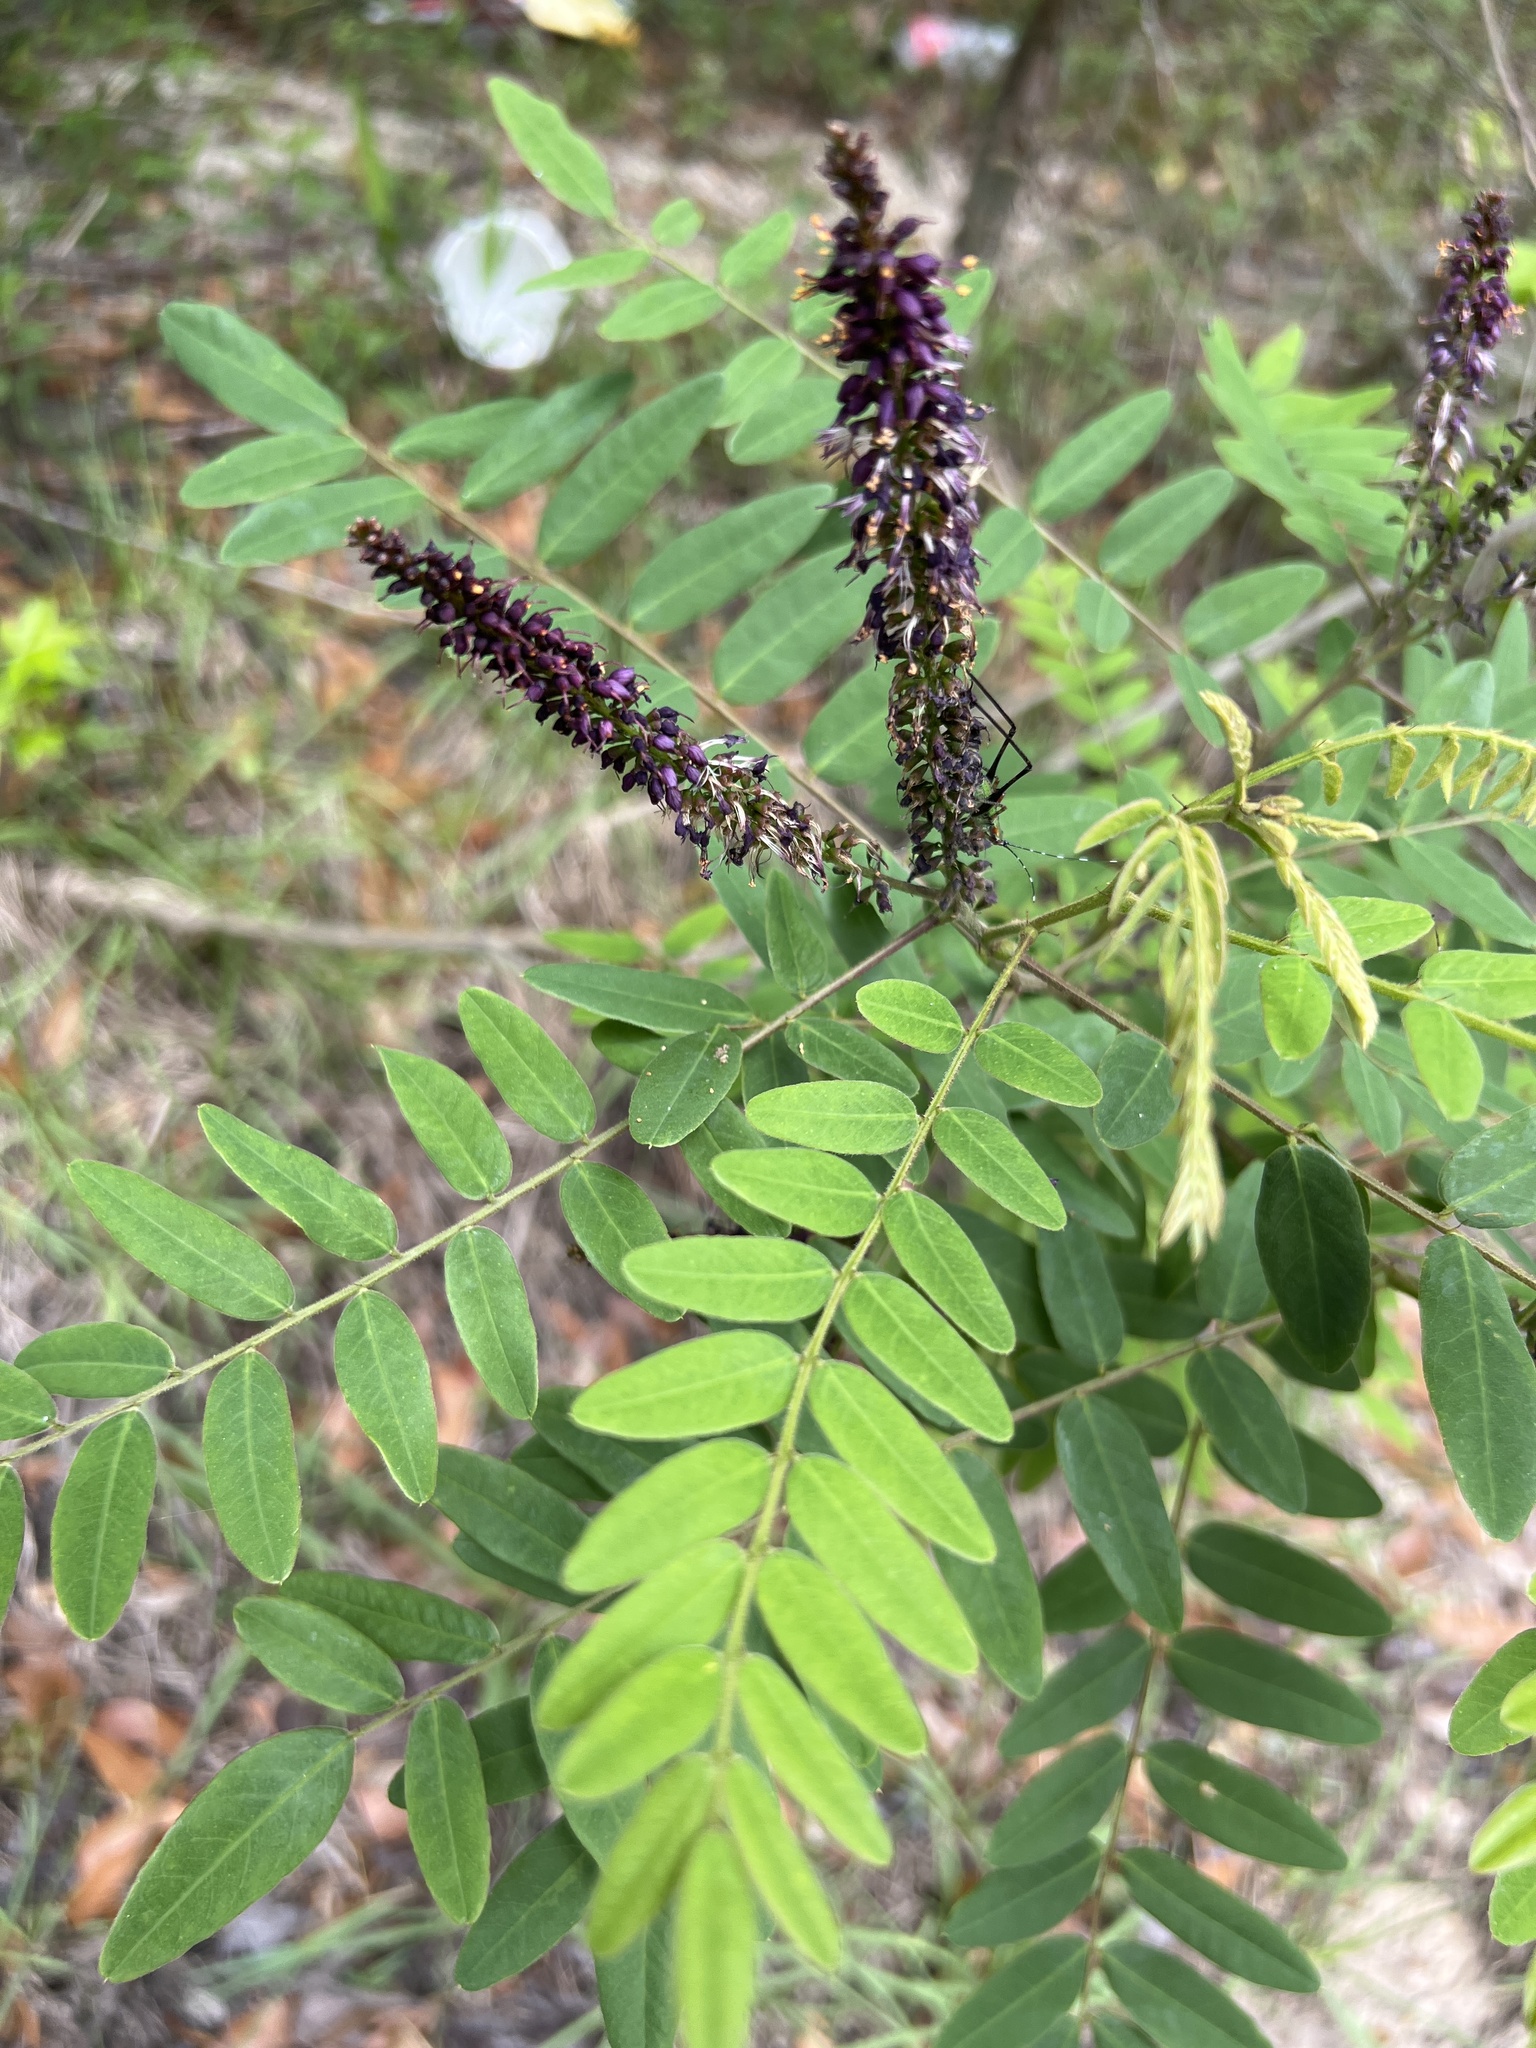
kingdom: Plantae
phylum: Tracheophyta
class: Magnoliopsida
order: Fabales
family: Fabaceae
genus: Amorpha
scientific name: Amorpha fruticosa
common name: False indigo
